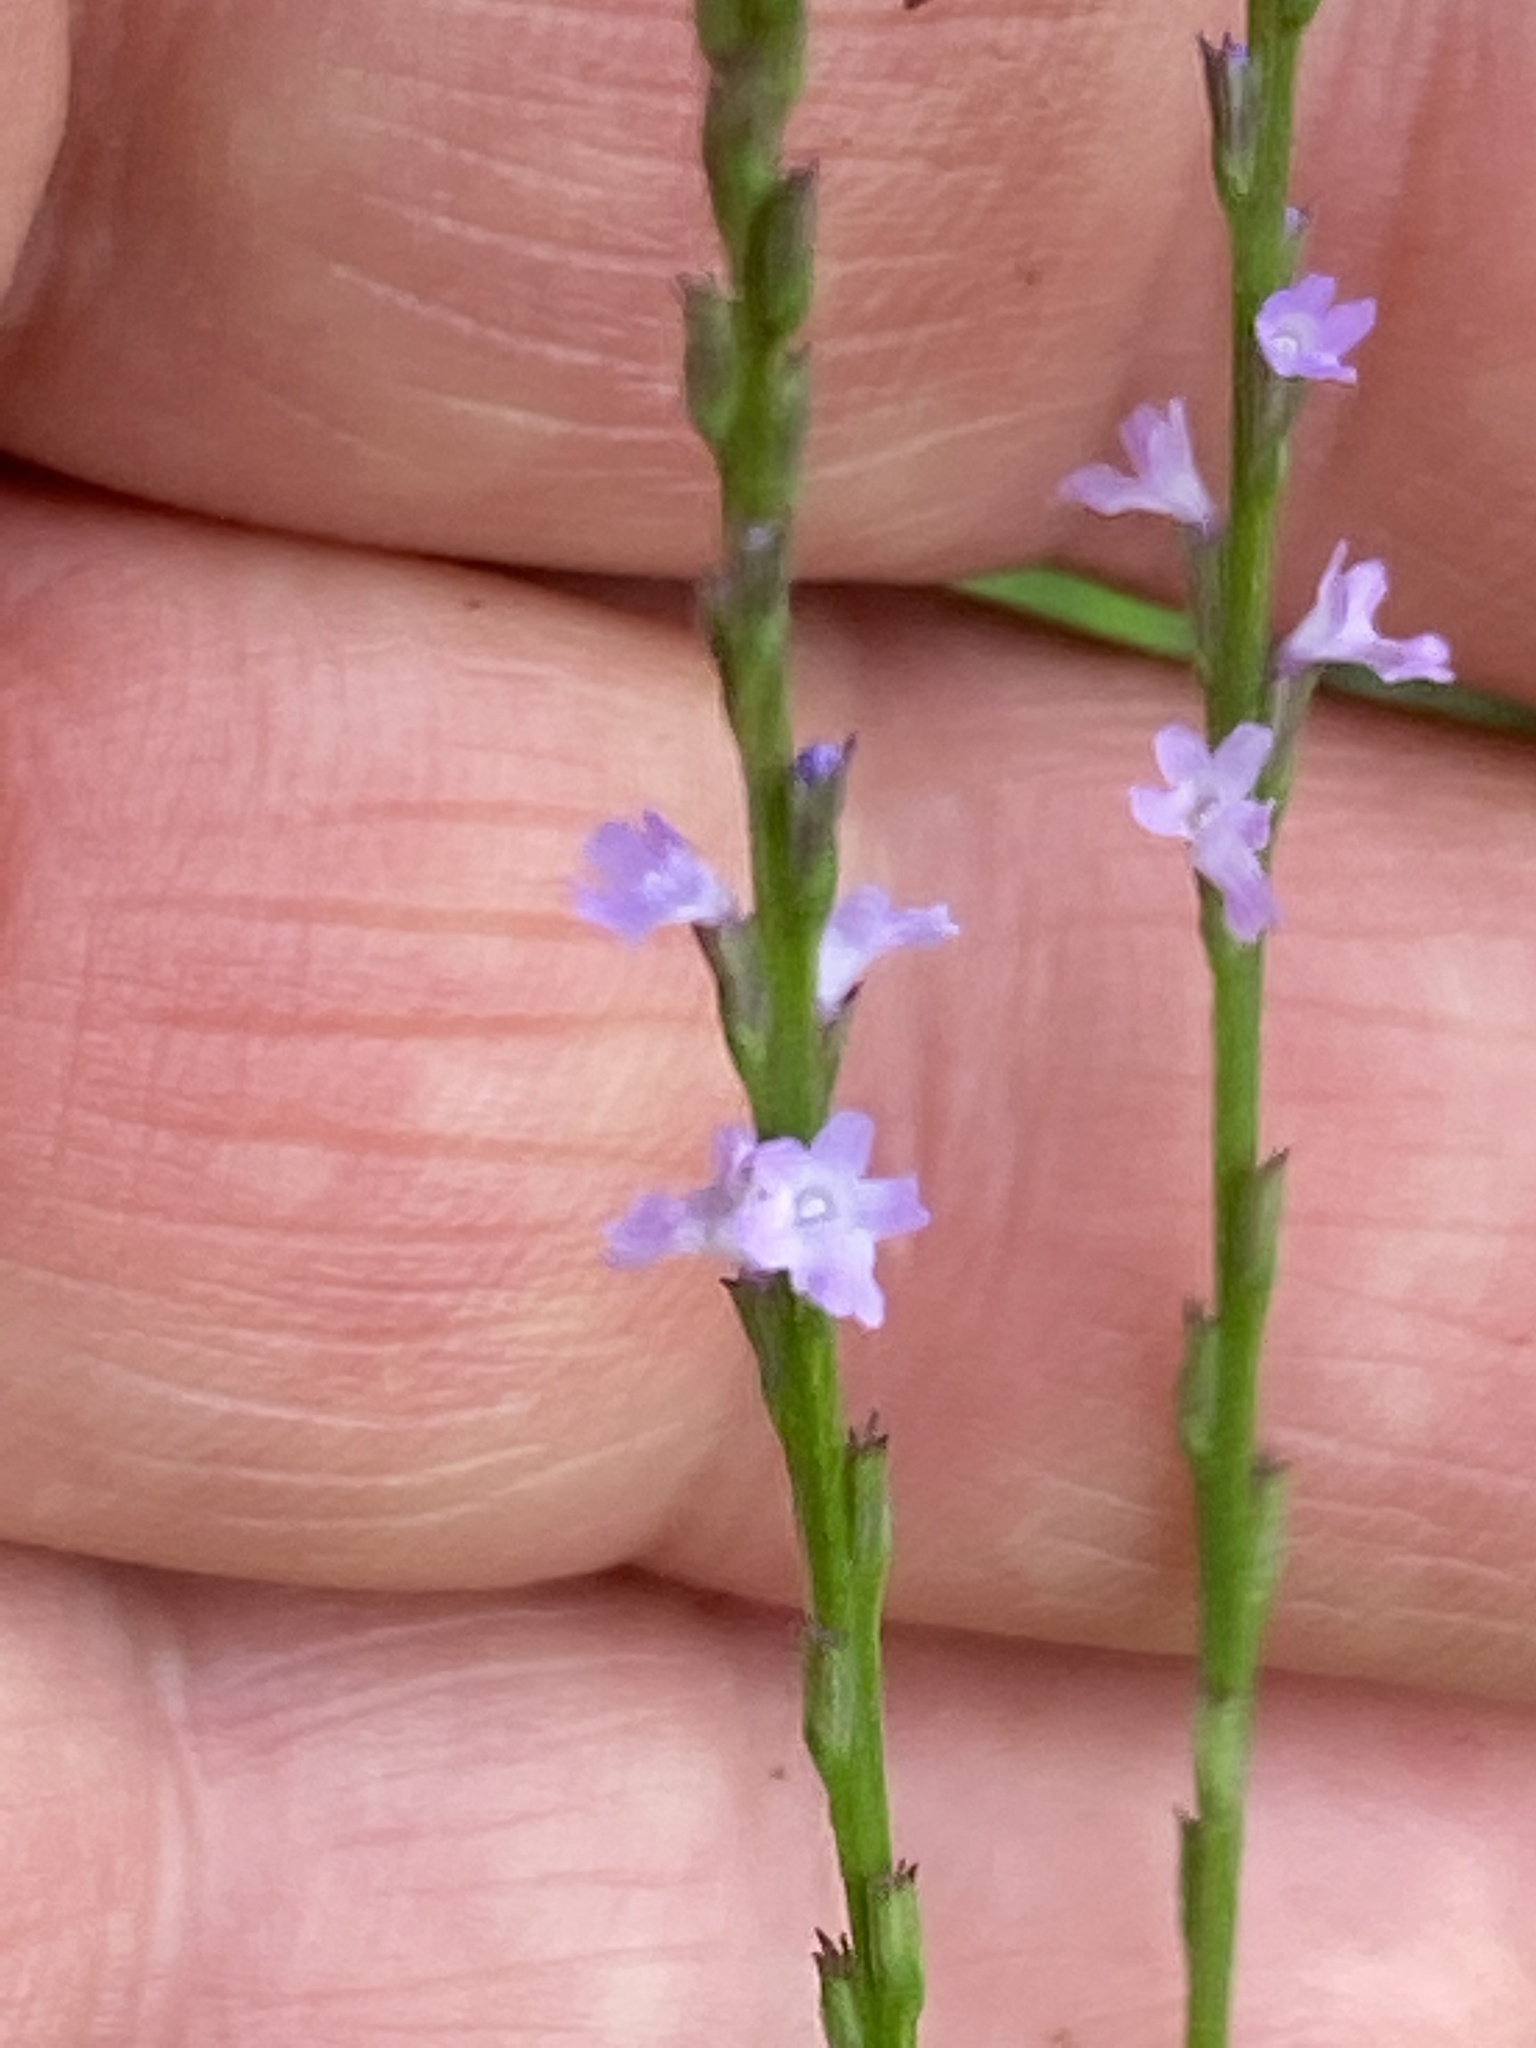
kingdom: Plantae
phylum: Tracheophyta
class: Magnoliopsida
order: Lamiales
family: Verbenaceae
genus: Verbena
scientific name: Verbena halei
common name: Texas vervain
